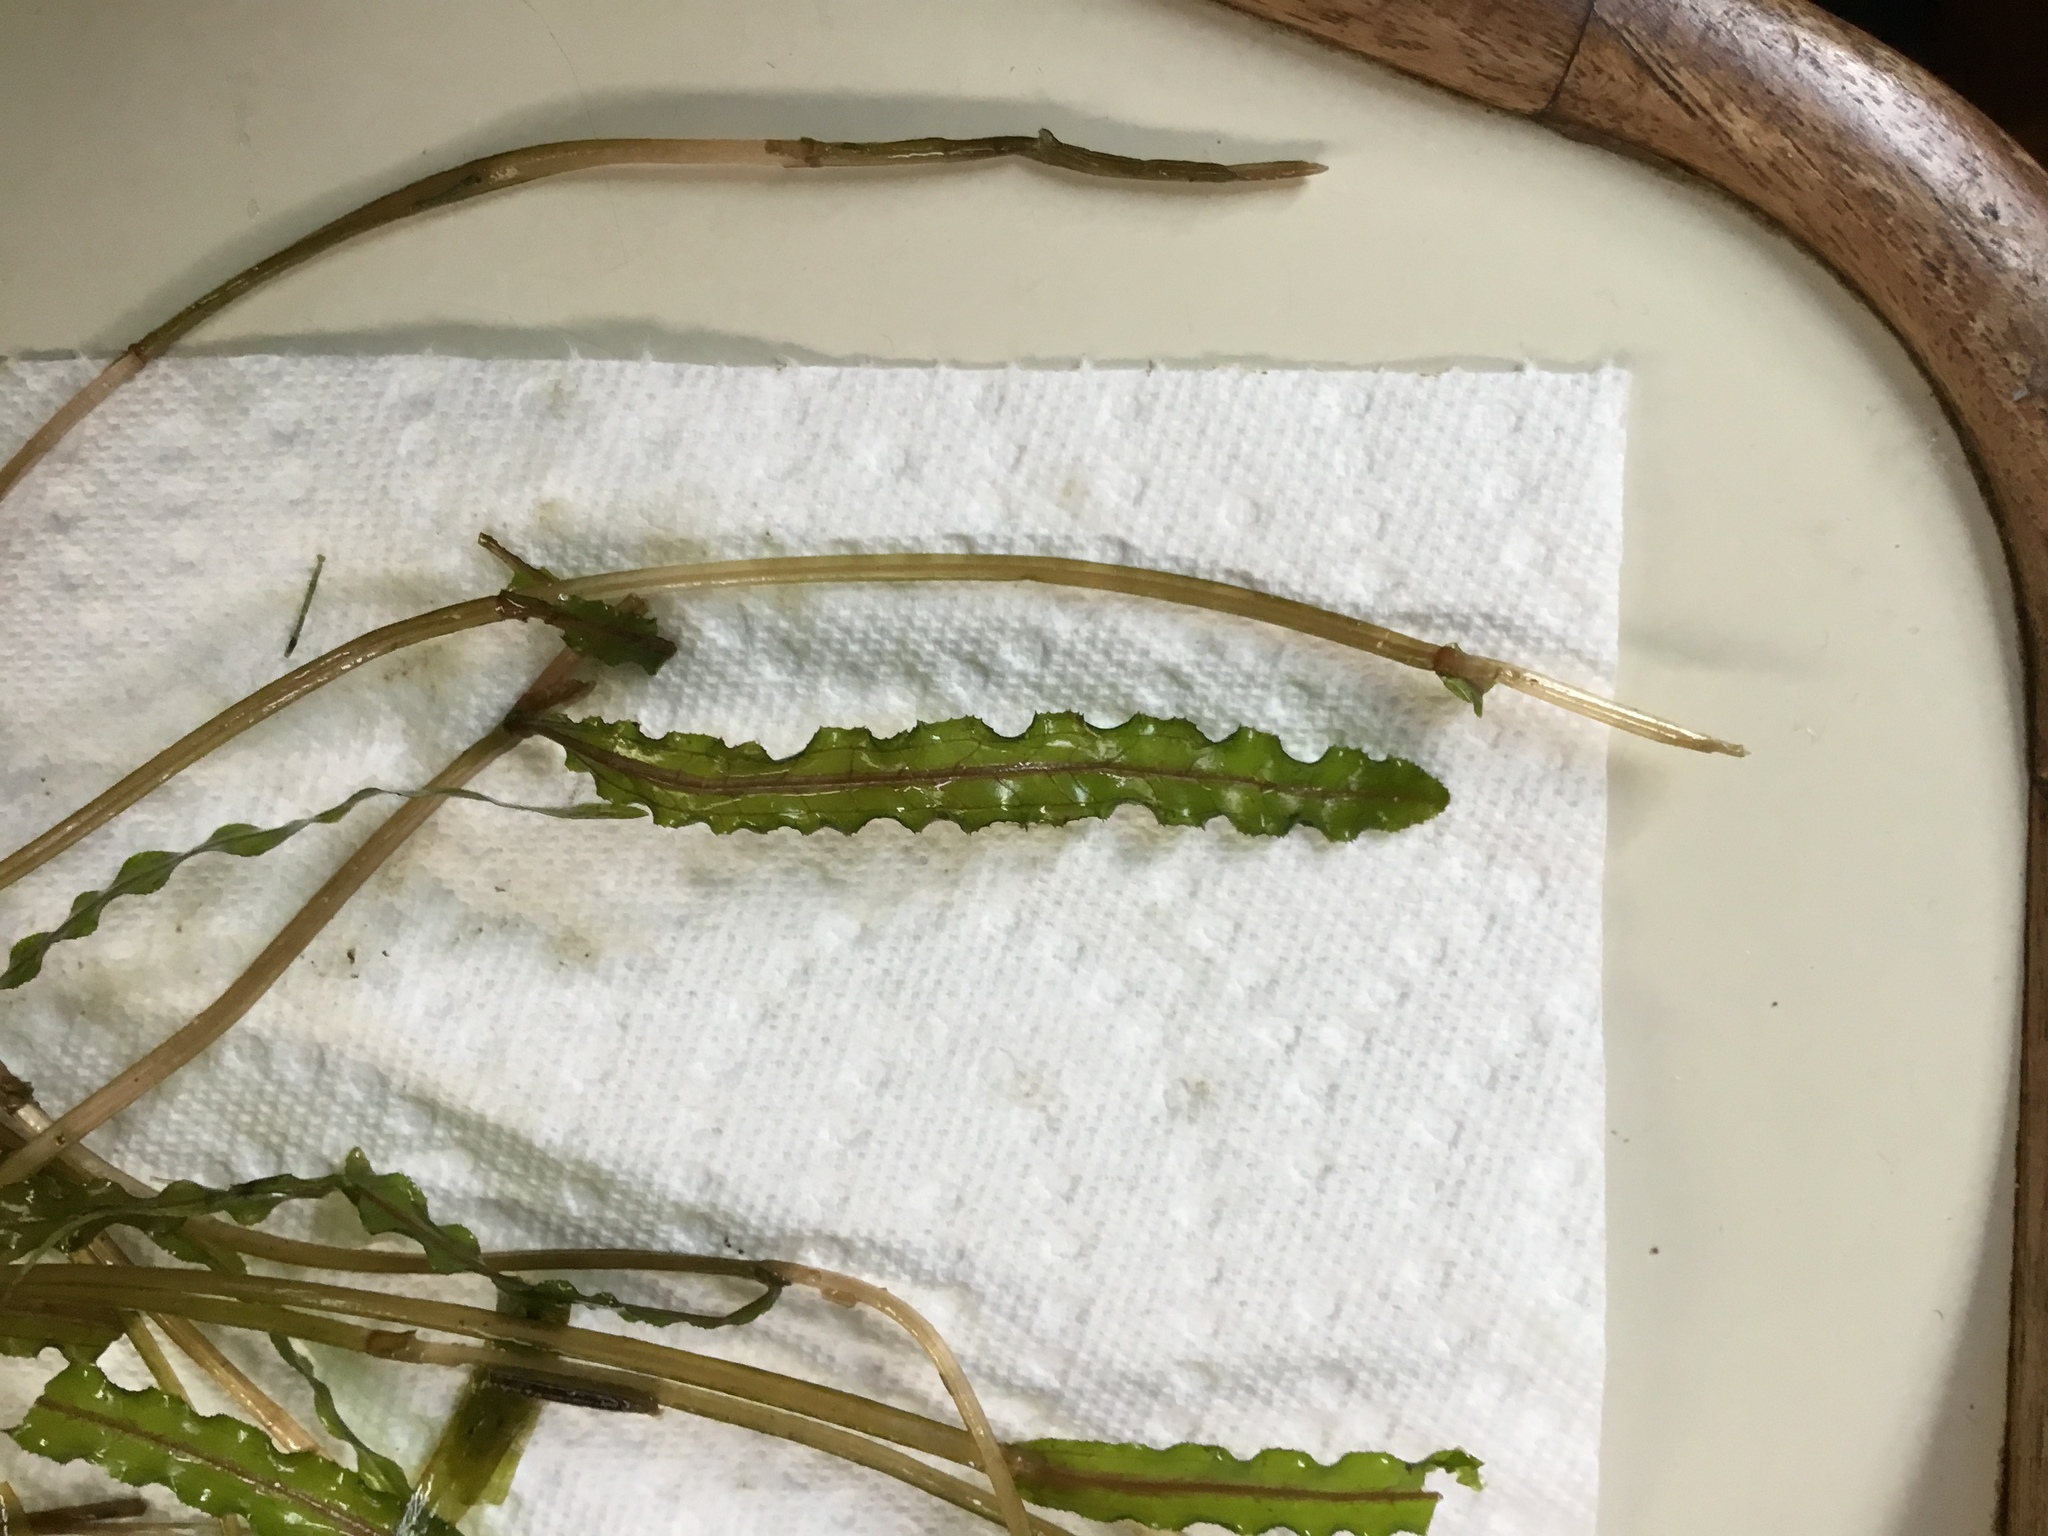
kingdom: Plantae
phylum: Tracheophyta
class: Liliopsida
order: Alismatales
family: Potamogetonaceae
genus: Potamogeton
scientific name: Potamogeton crispus
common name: Curled pondweed
